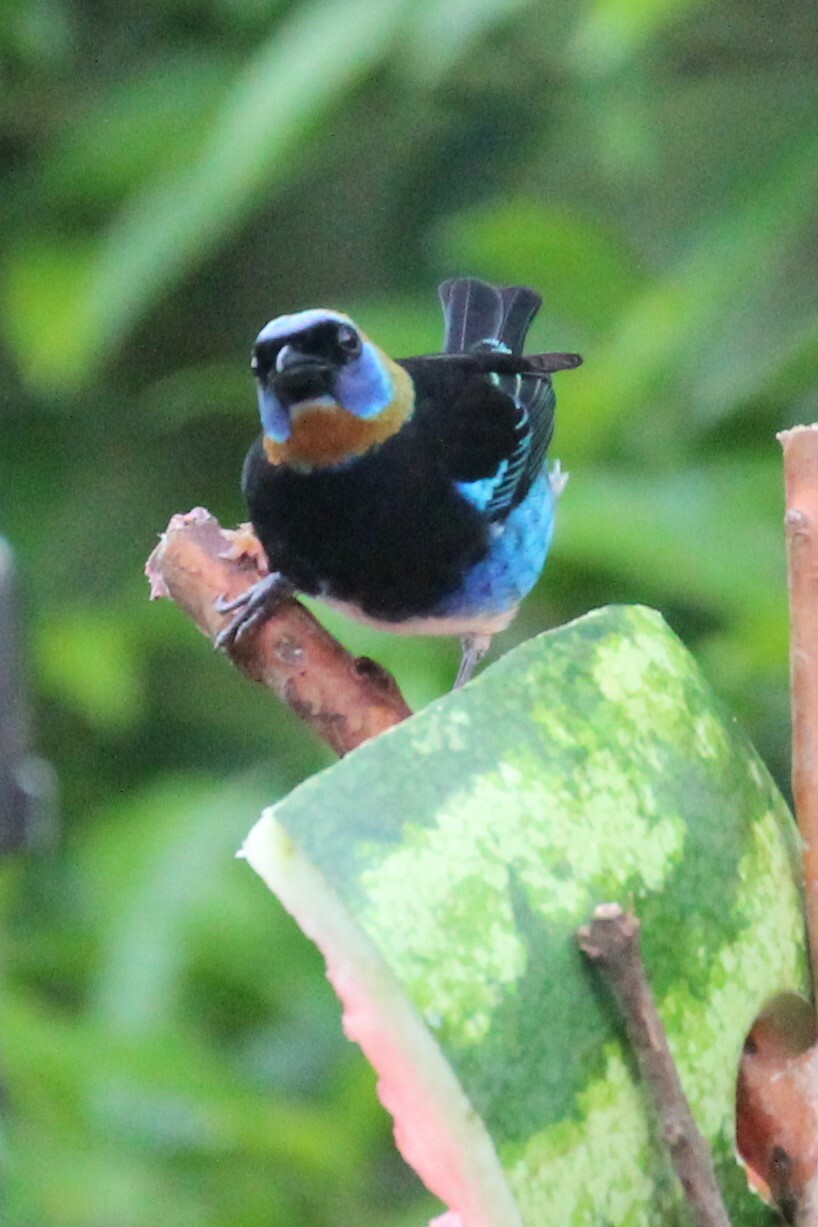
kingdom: Animalia
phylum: Chordata
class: Aves
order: Passeriformes
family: Thraupidae
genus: Stilpnia
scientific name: Stilpnia larvata
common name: Golden-hooded tanager
